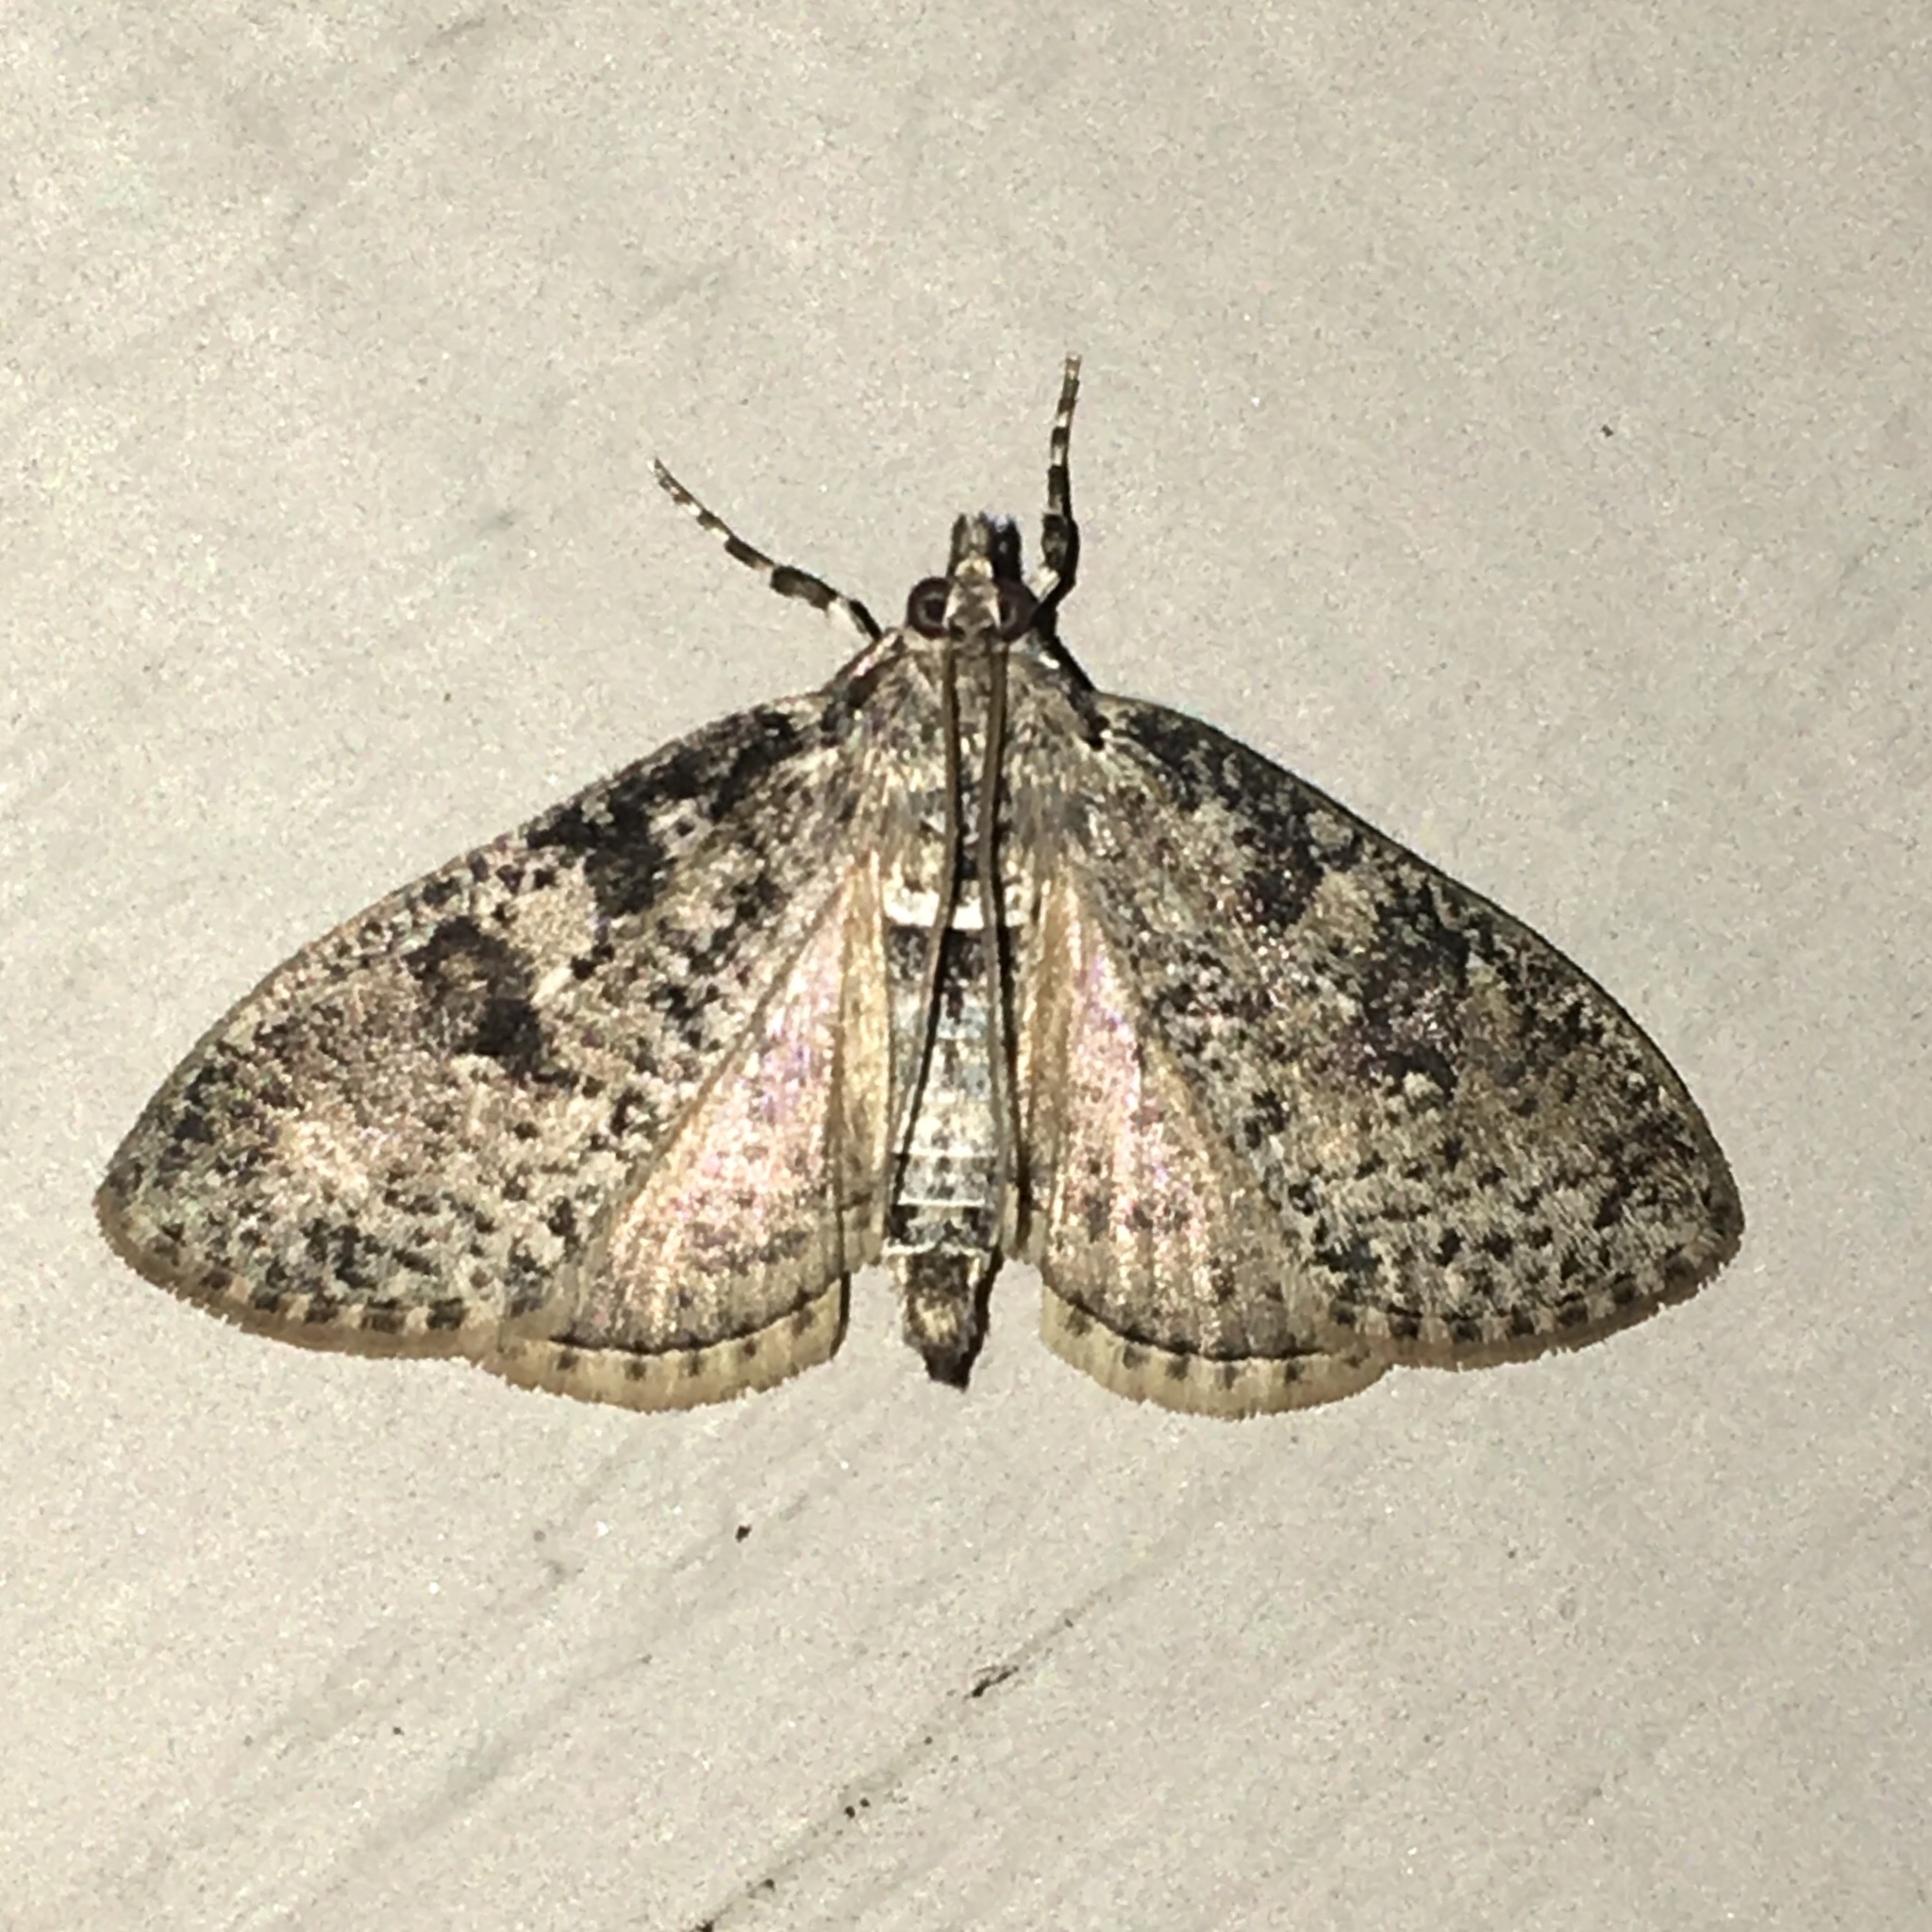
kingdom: Animalia
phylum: Arthropoda
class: Insecta
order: Lepidoptera
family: Crambidae
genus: Palpita
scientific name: Palpita magniferalis
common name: Splendid palpita moth
